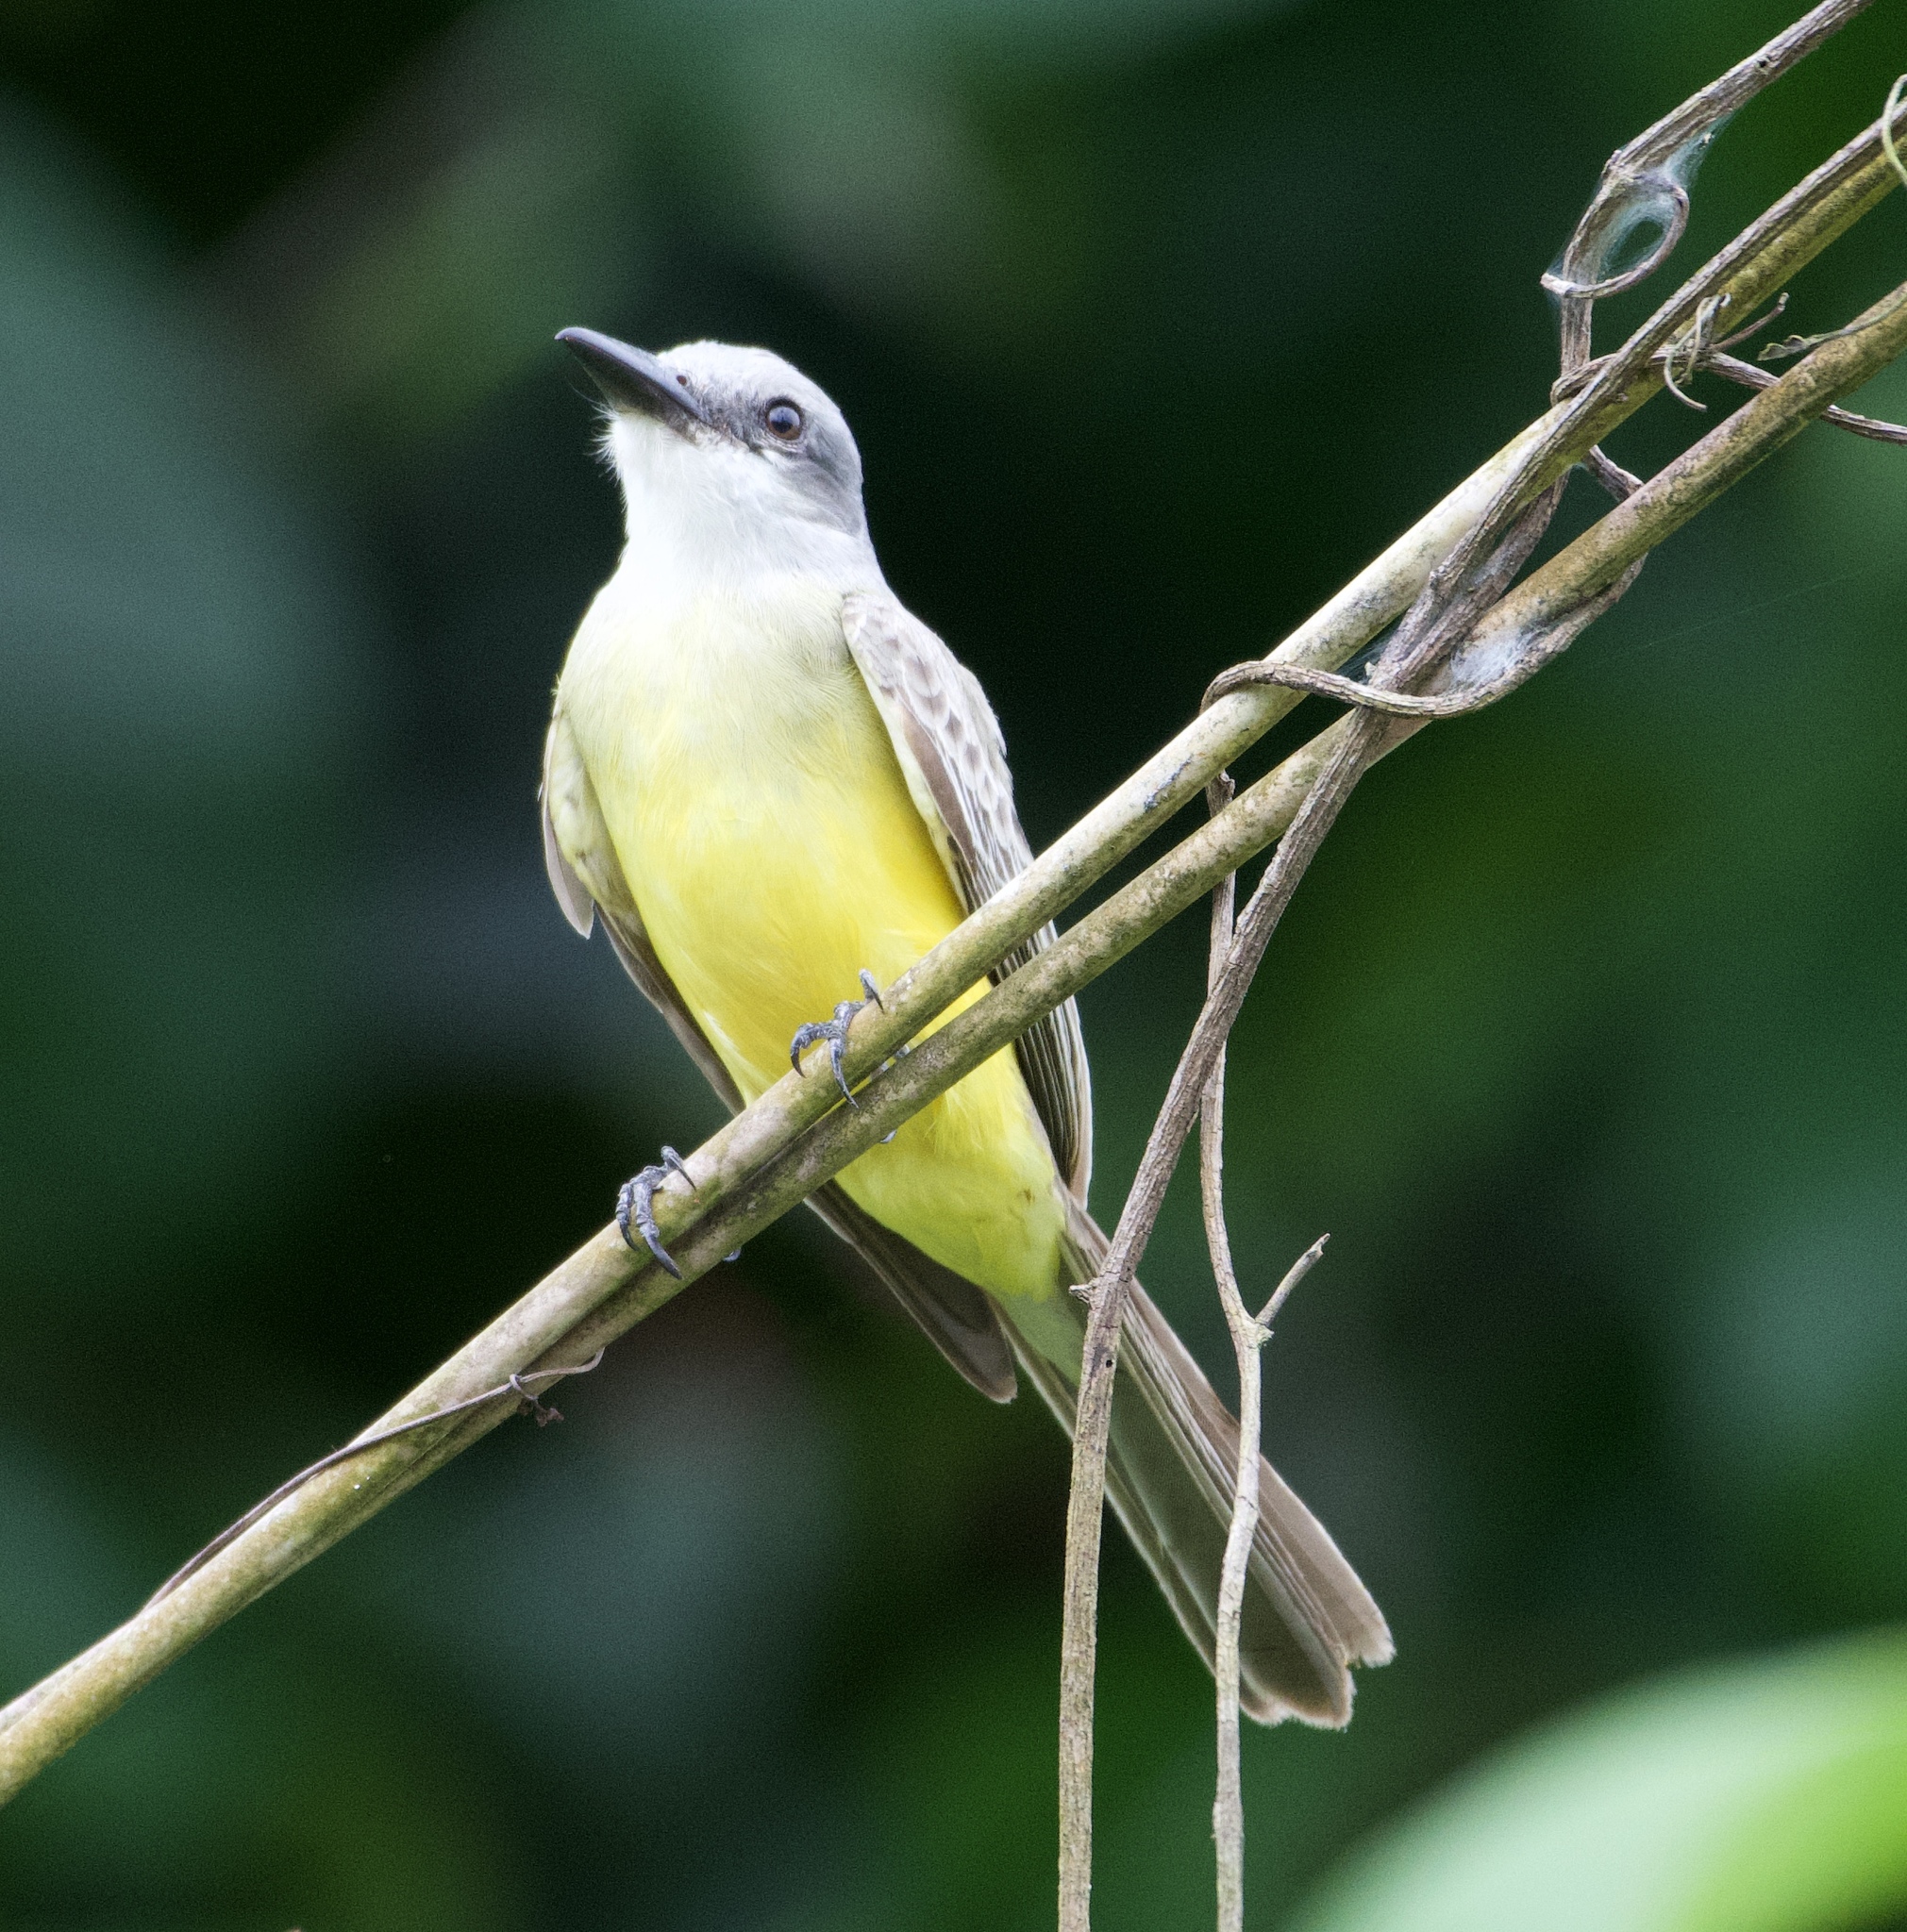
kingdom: Animalia
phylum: Chordata
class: Aves
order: Passeriformes
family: Tyrannidae
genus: Tyrannus
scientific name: Tyrannus melancholicus
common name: Tropical kingbird
